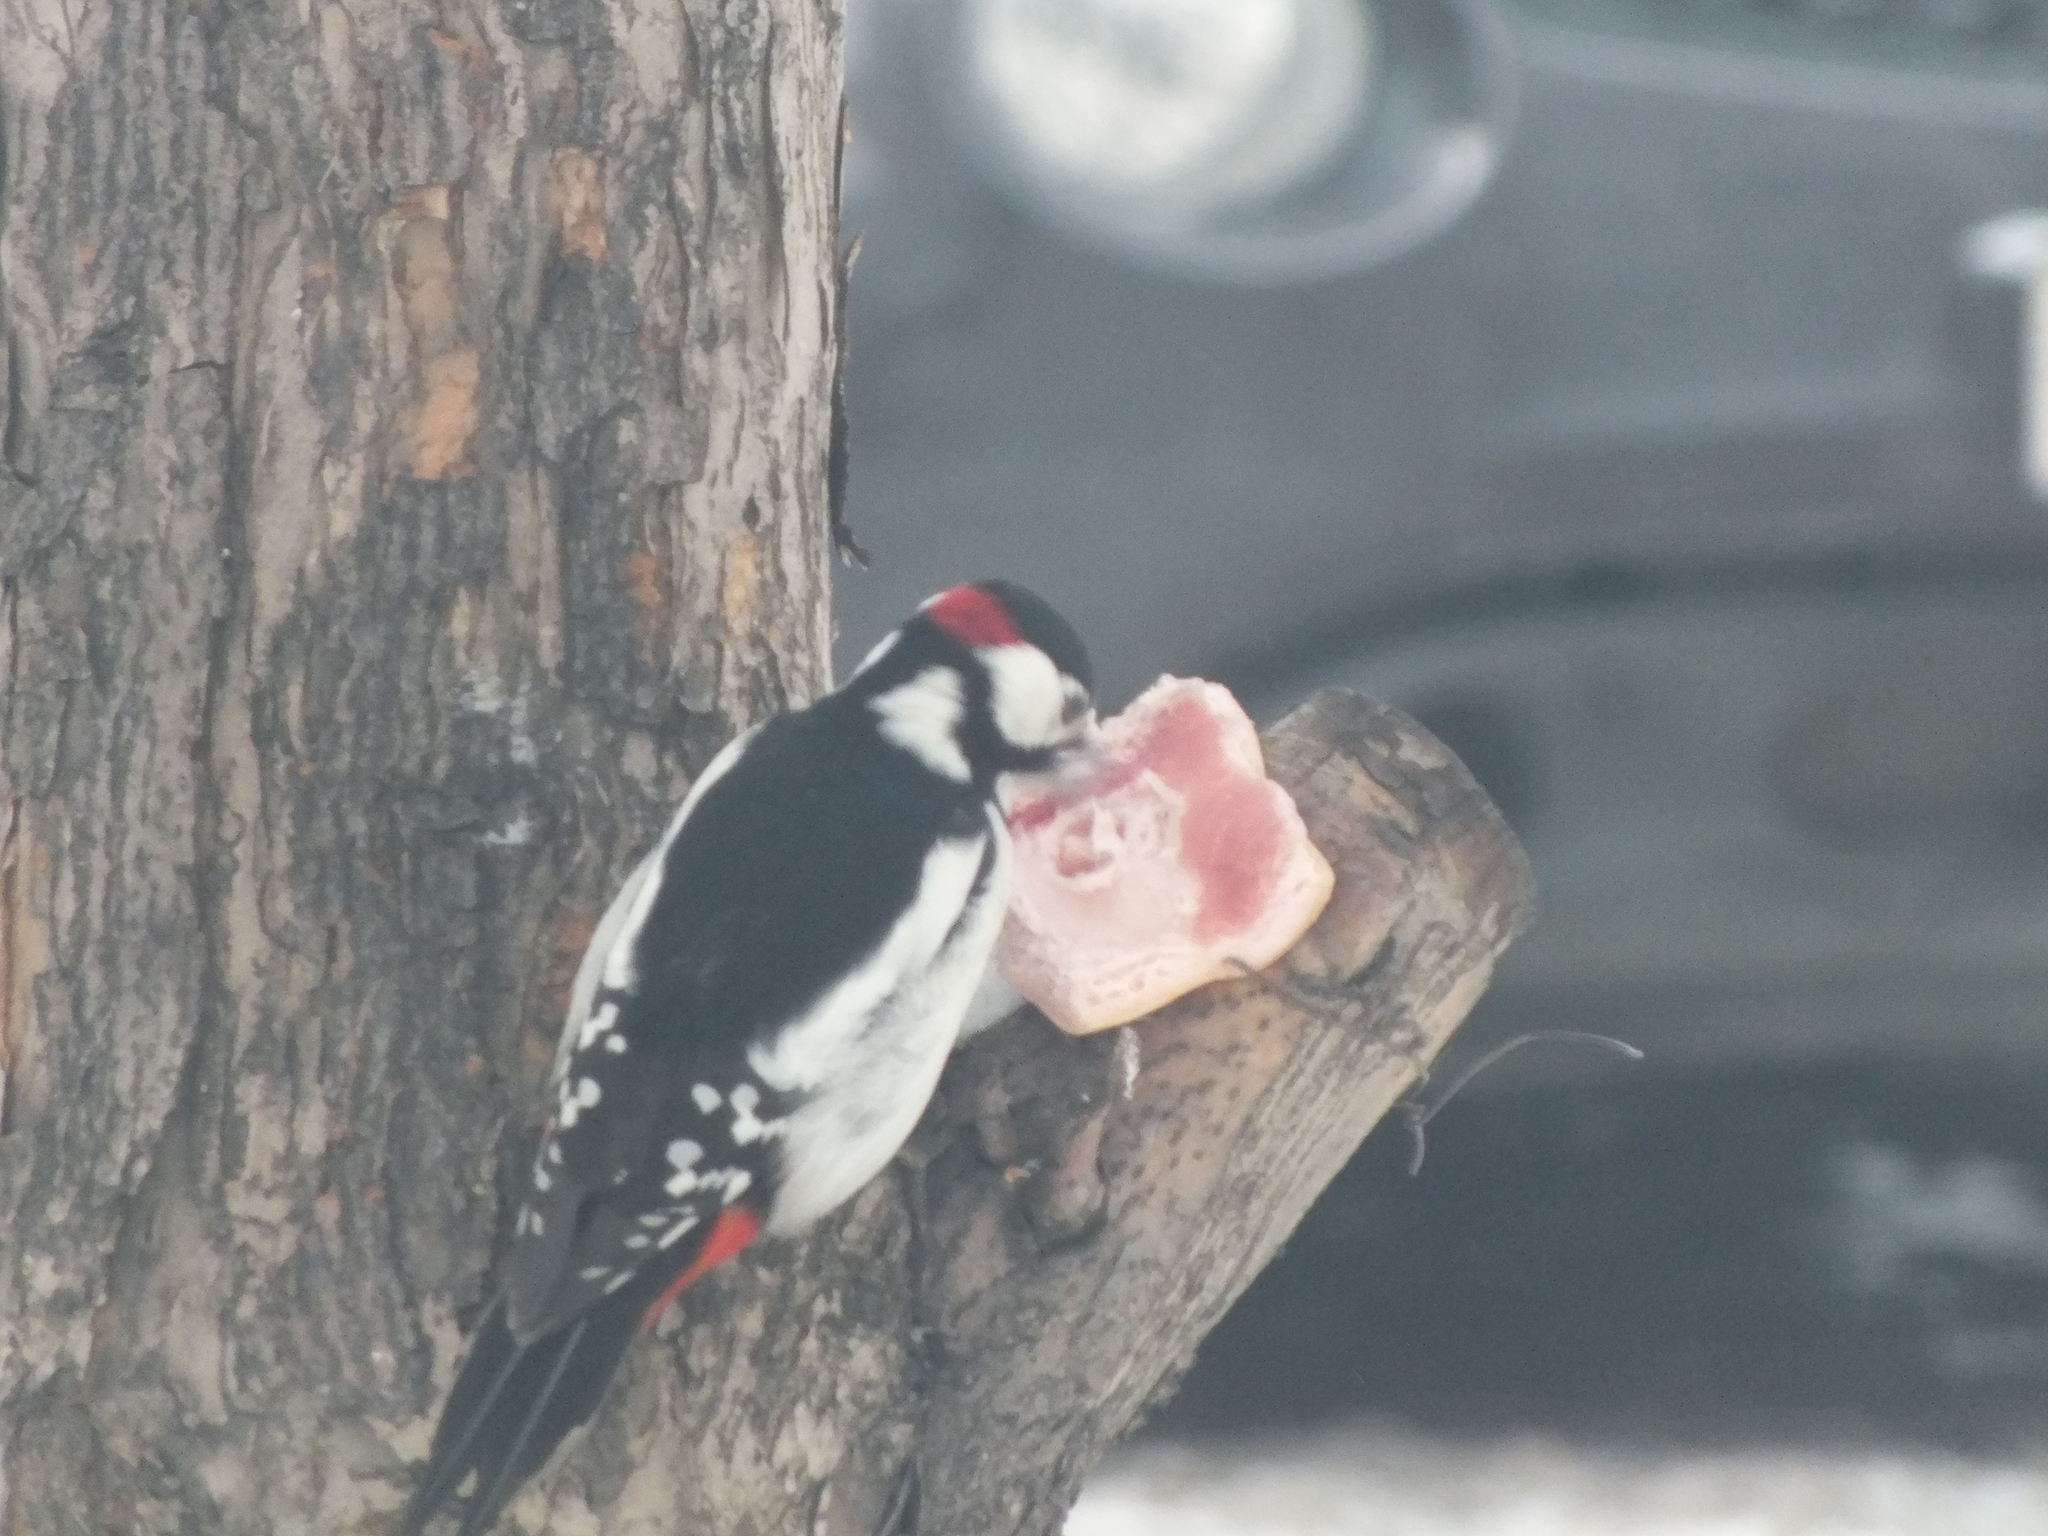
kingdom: Animalia
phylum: Chordata
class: Aves
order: Piciformes
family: Picidae
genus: Dendrocopos
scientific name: Dendrocopos major
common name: Great spotted woodpecker
